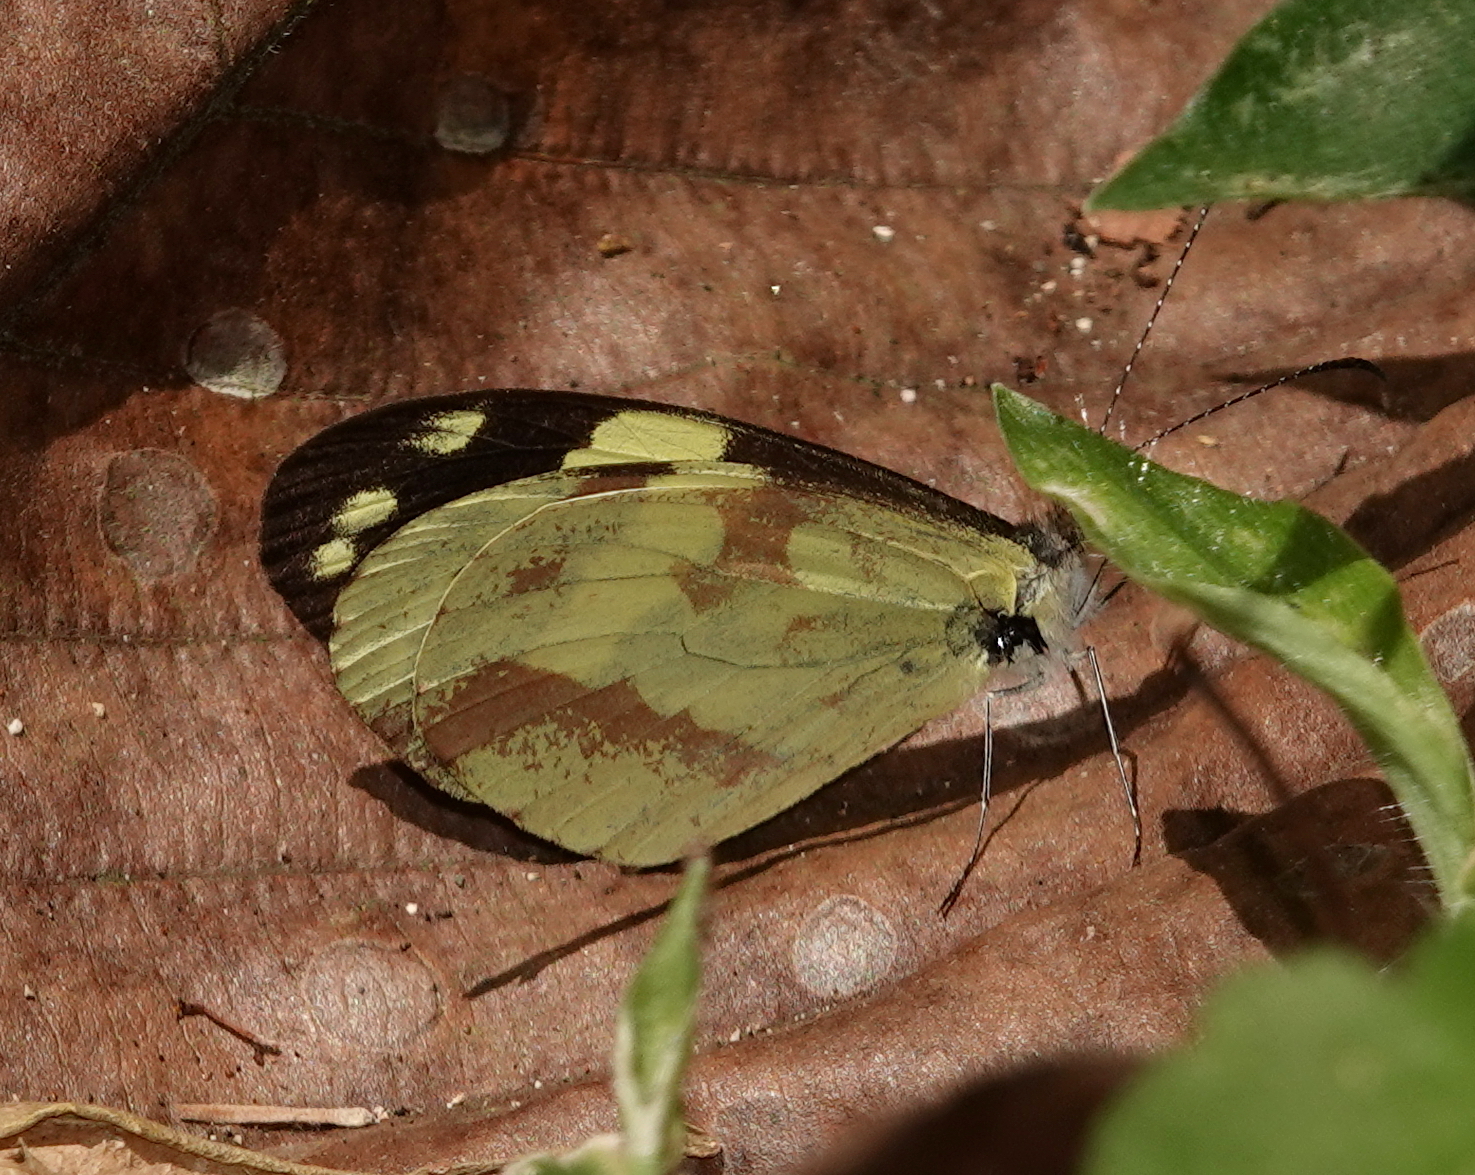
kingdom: Animalia
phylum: Arthropoda
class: Insecta
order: Lepidoptera
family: Pieridae
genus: Dismorphia
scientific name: Dismorphia medora
